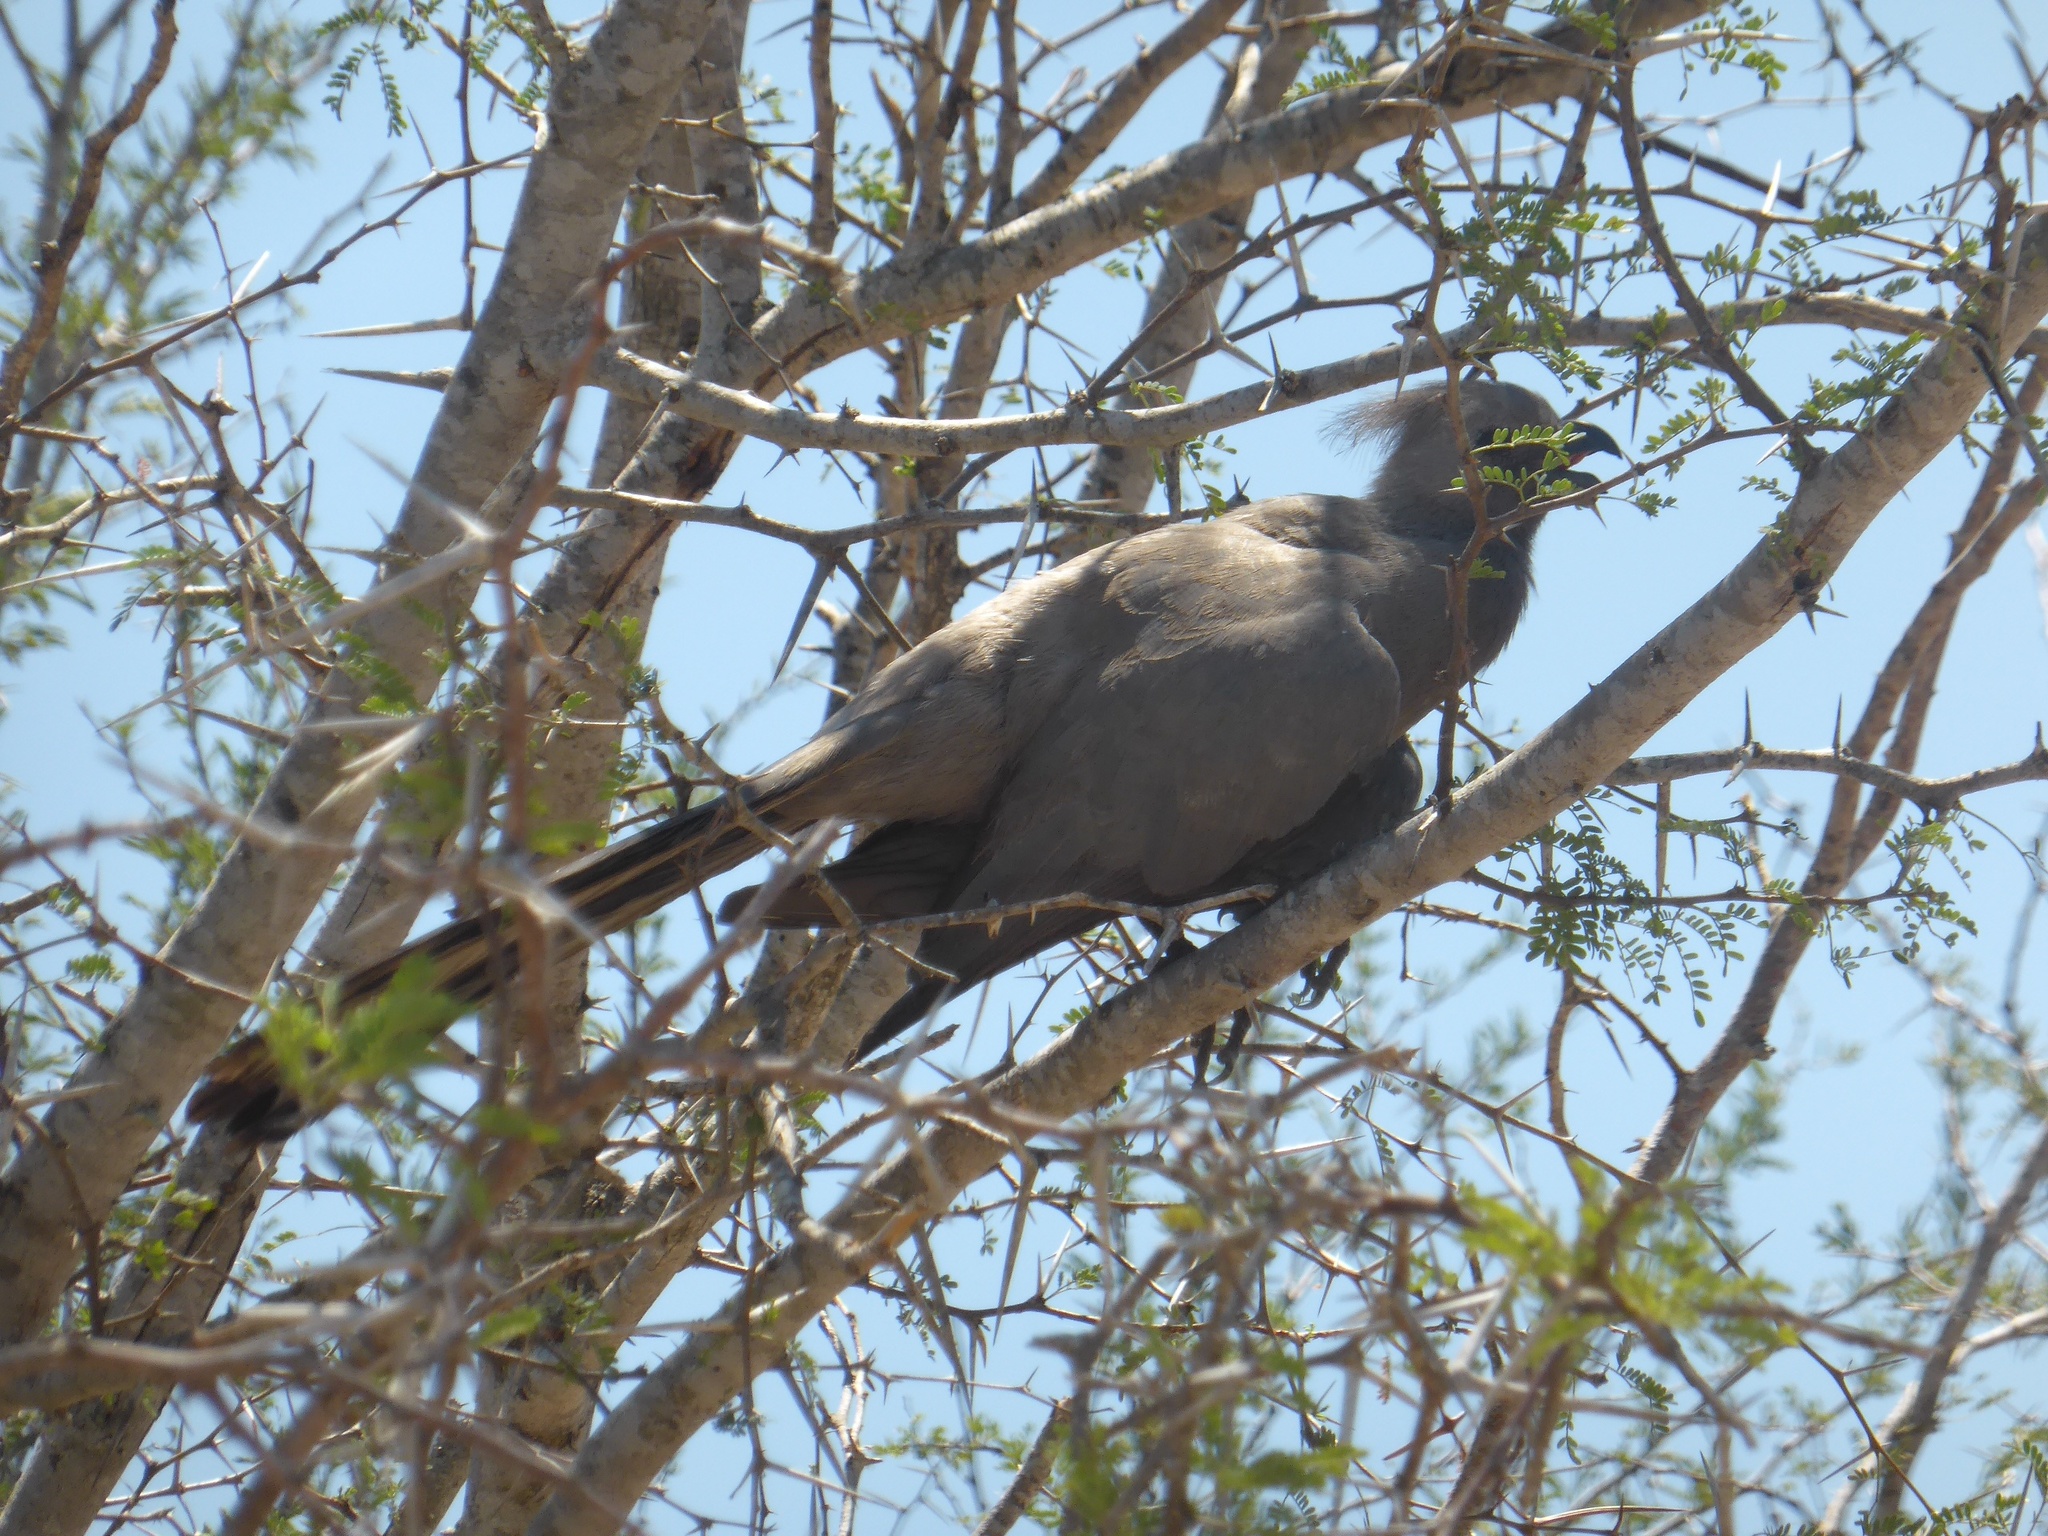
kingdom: Animalia
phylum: Chordata
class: Aves
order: Musophagiformes
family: Musophagidae
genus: Corythaixoides
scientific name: Corythaixoides concolor
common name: Grey go-away-bird
